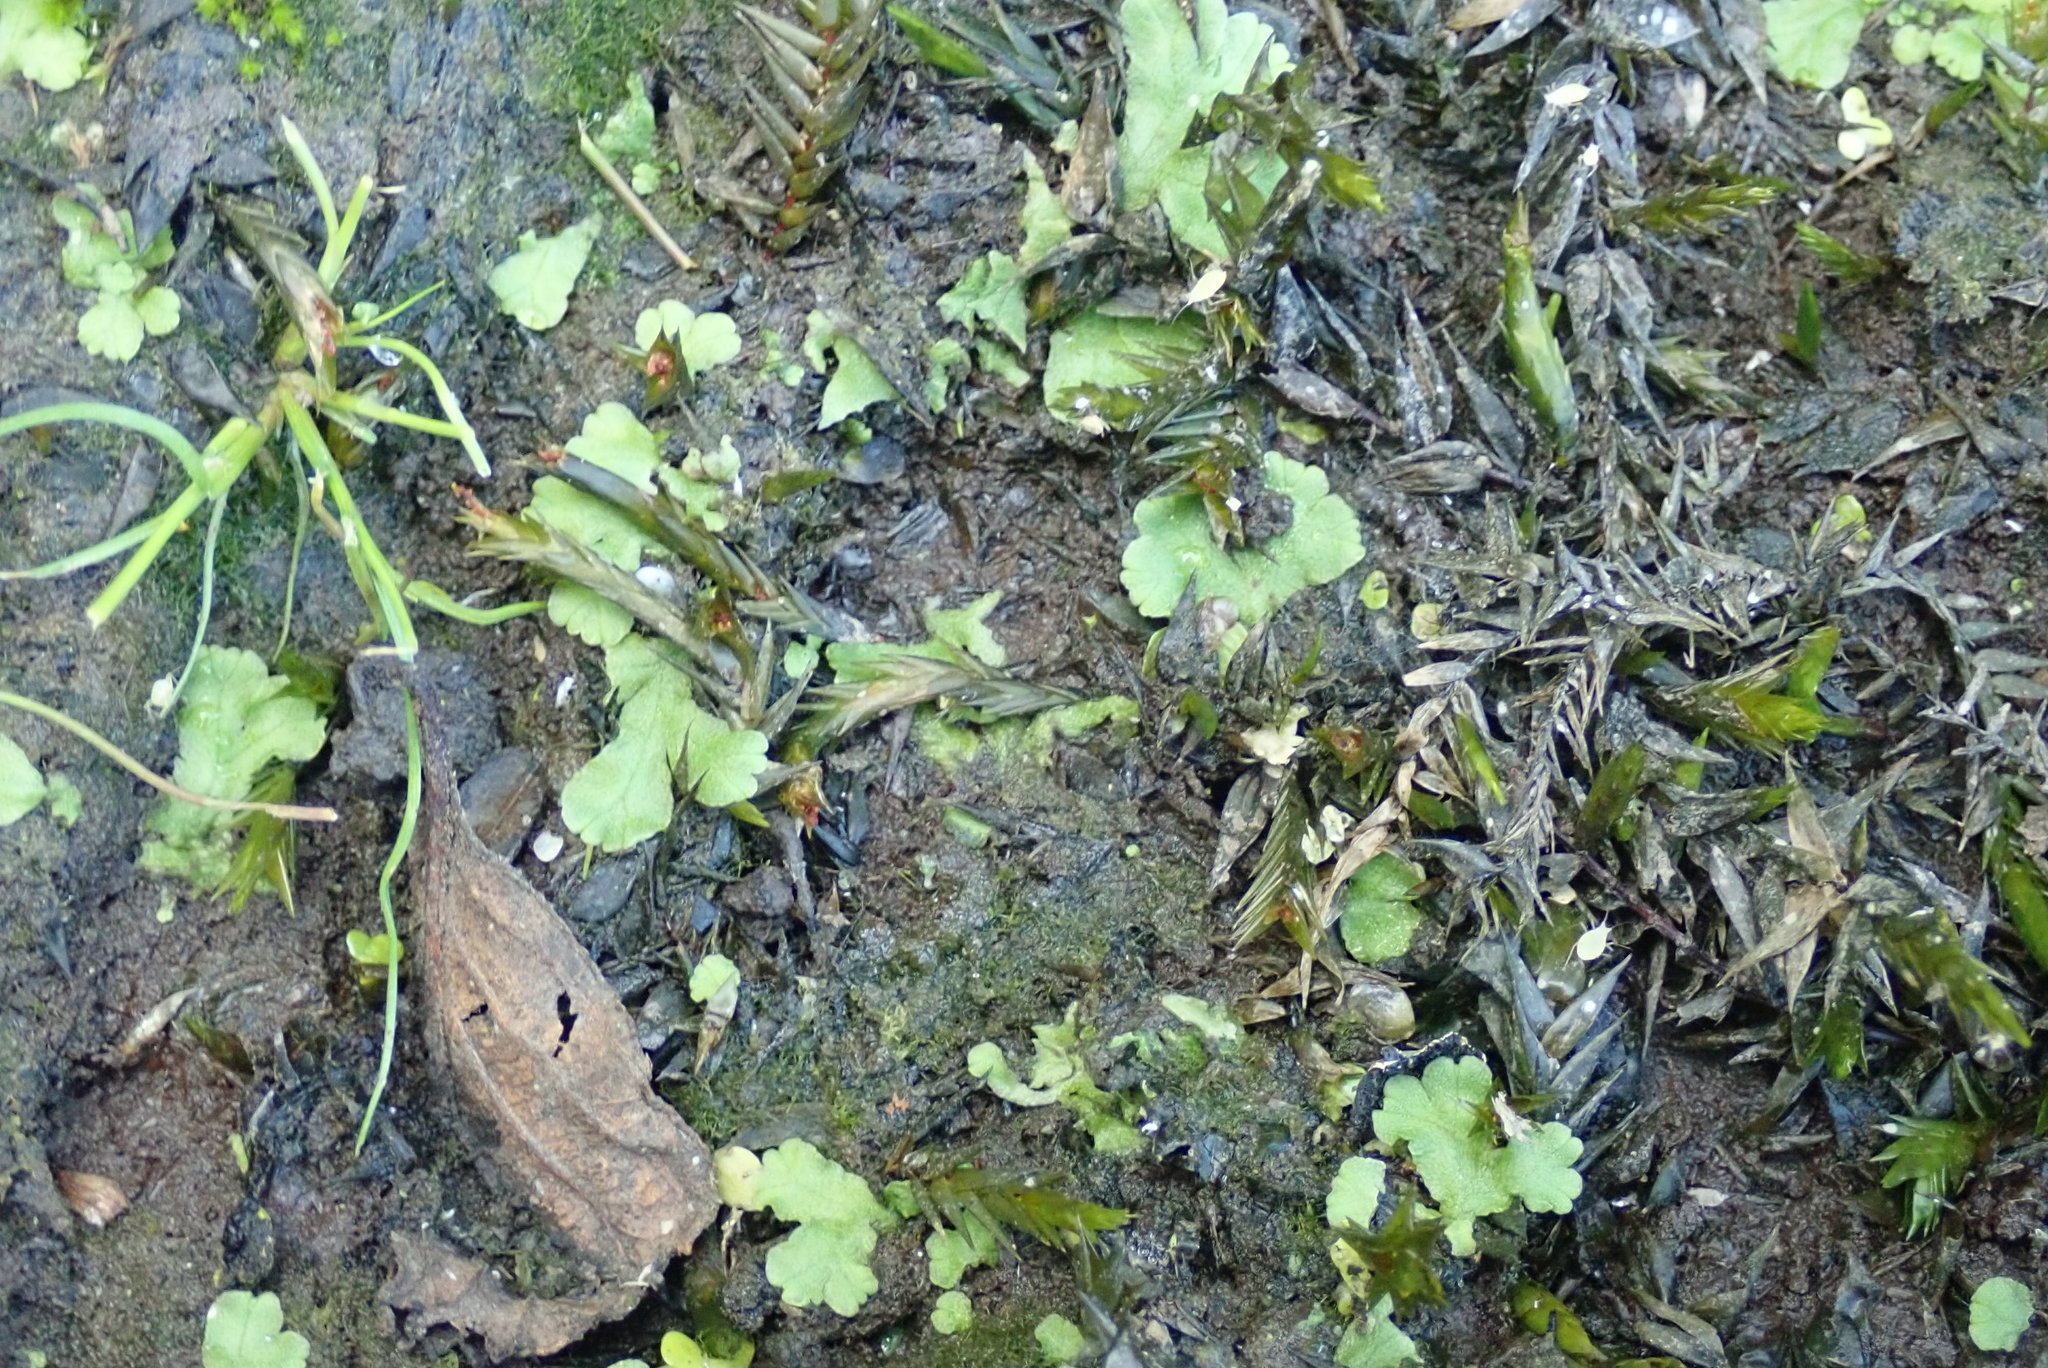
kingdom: Plantae
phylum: Marchantiophyta
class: Marchantiopsida
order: Marchantiales
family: Ricciaceae
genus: Ricciocarpos
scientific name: Ricciocarpos natans
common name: Purple-fringed liverwort
